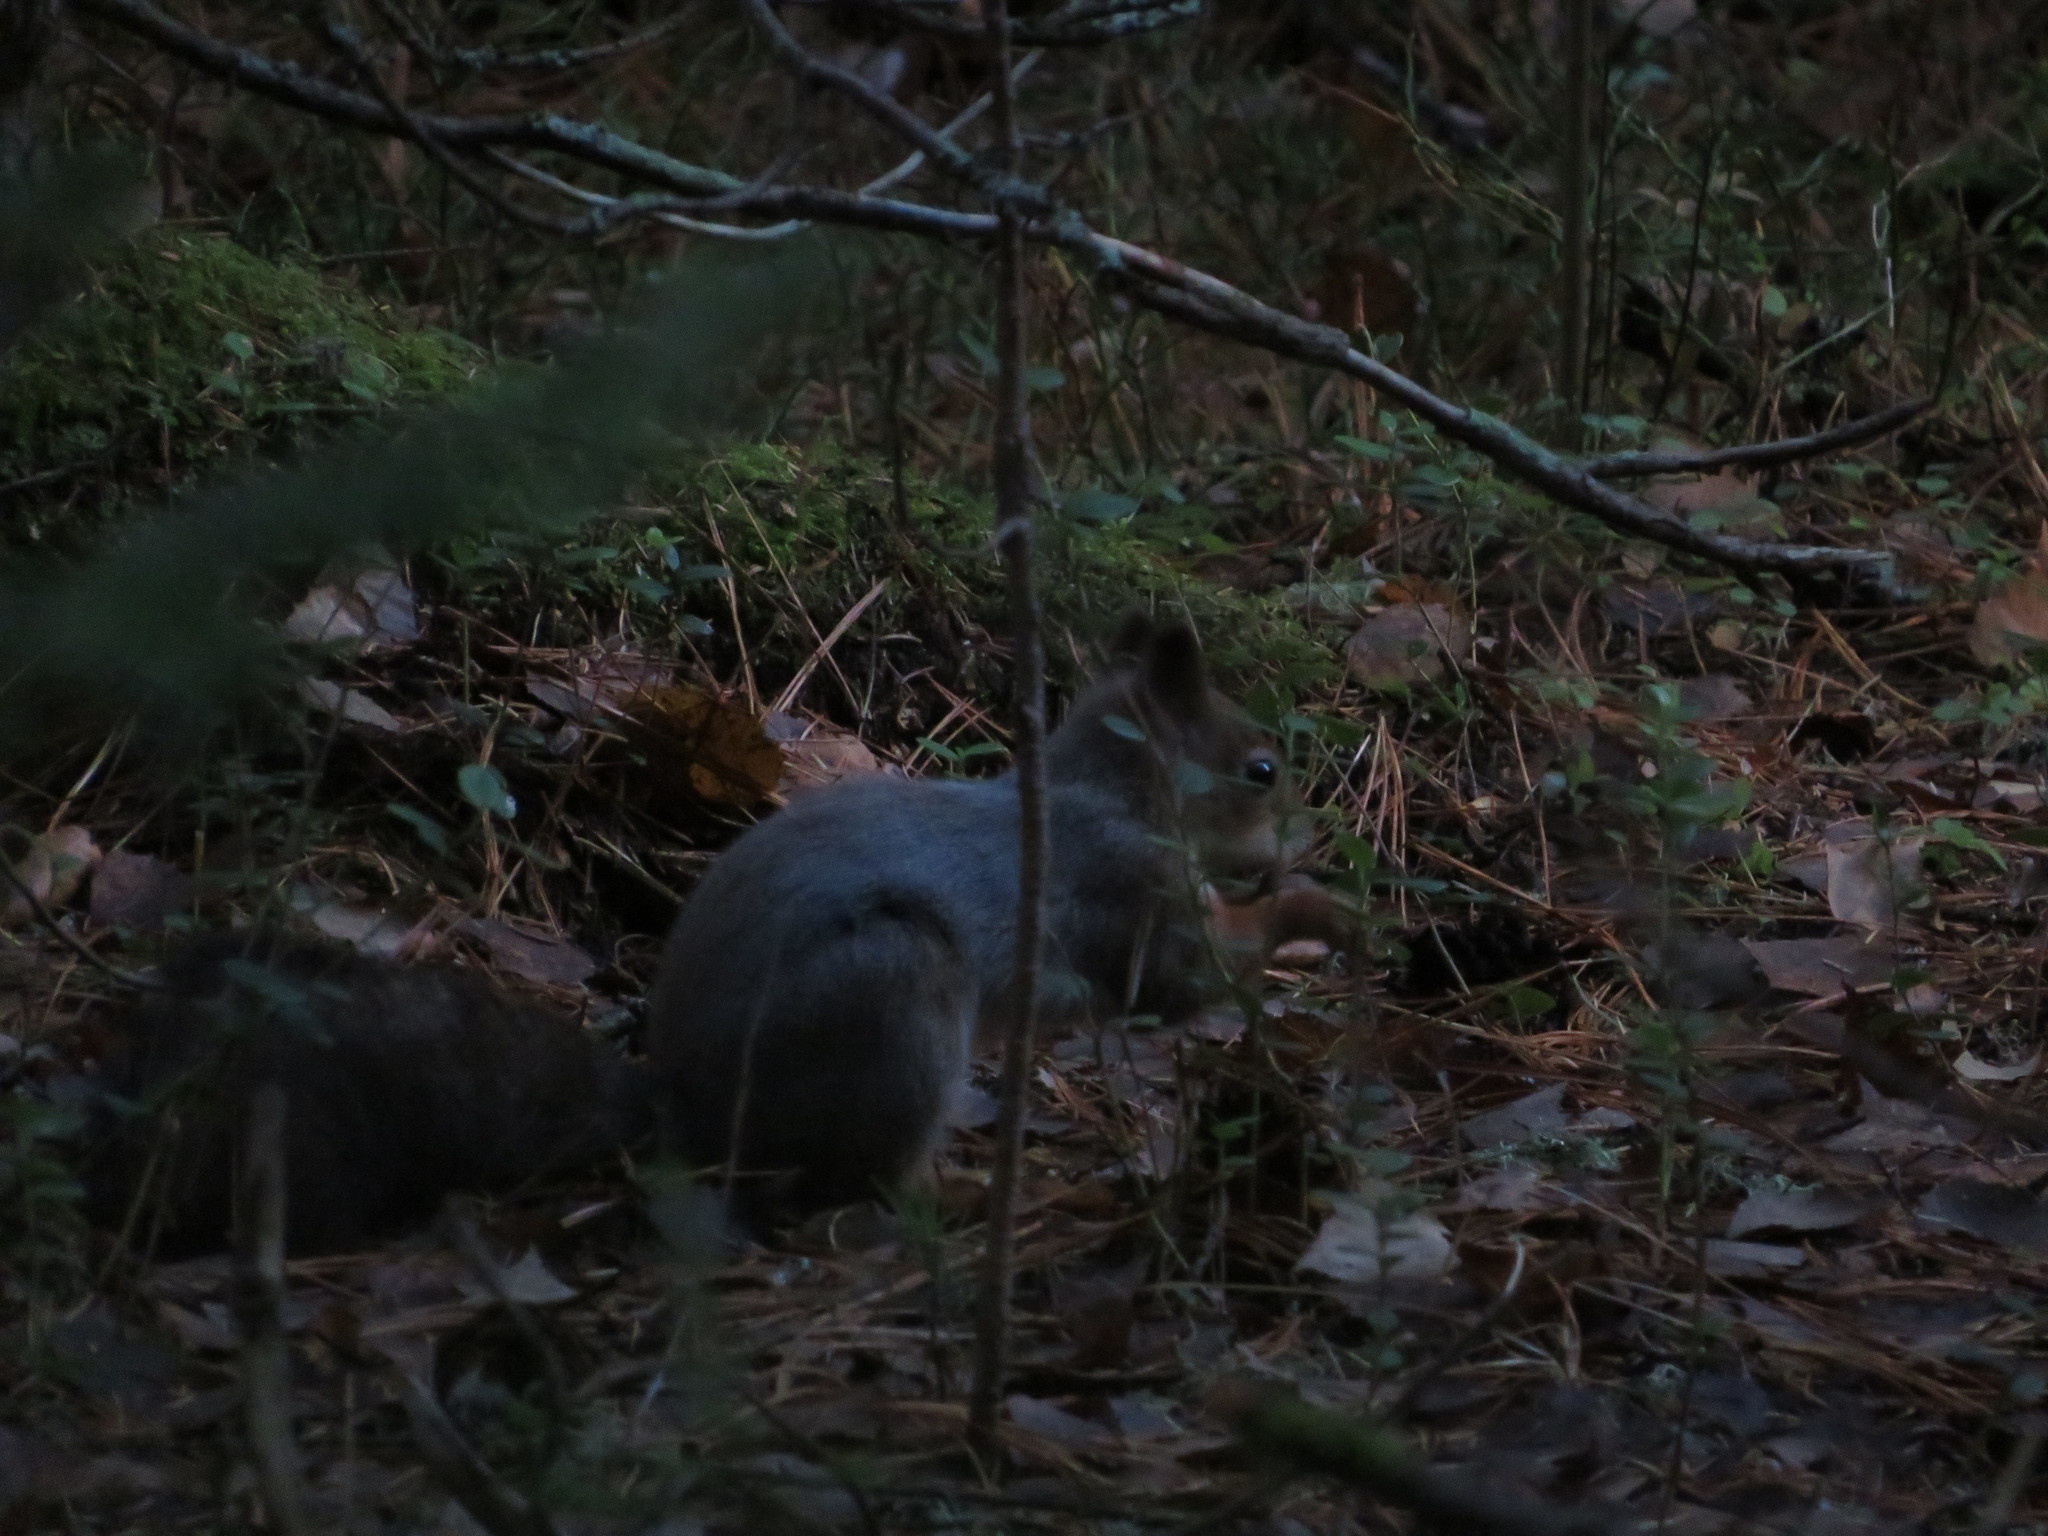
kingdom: Animalia
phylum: Chordata
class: Mammalia
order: Rodentia
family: Sciuridae
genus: Sciurus
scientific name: Sciurus vulgaris
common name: Eurasian red squirrel
